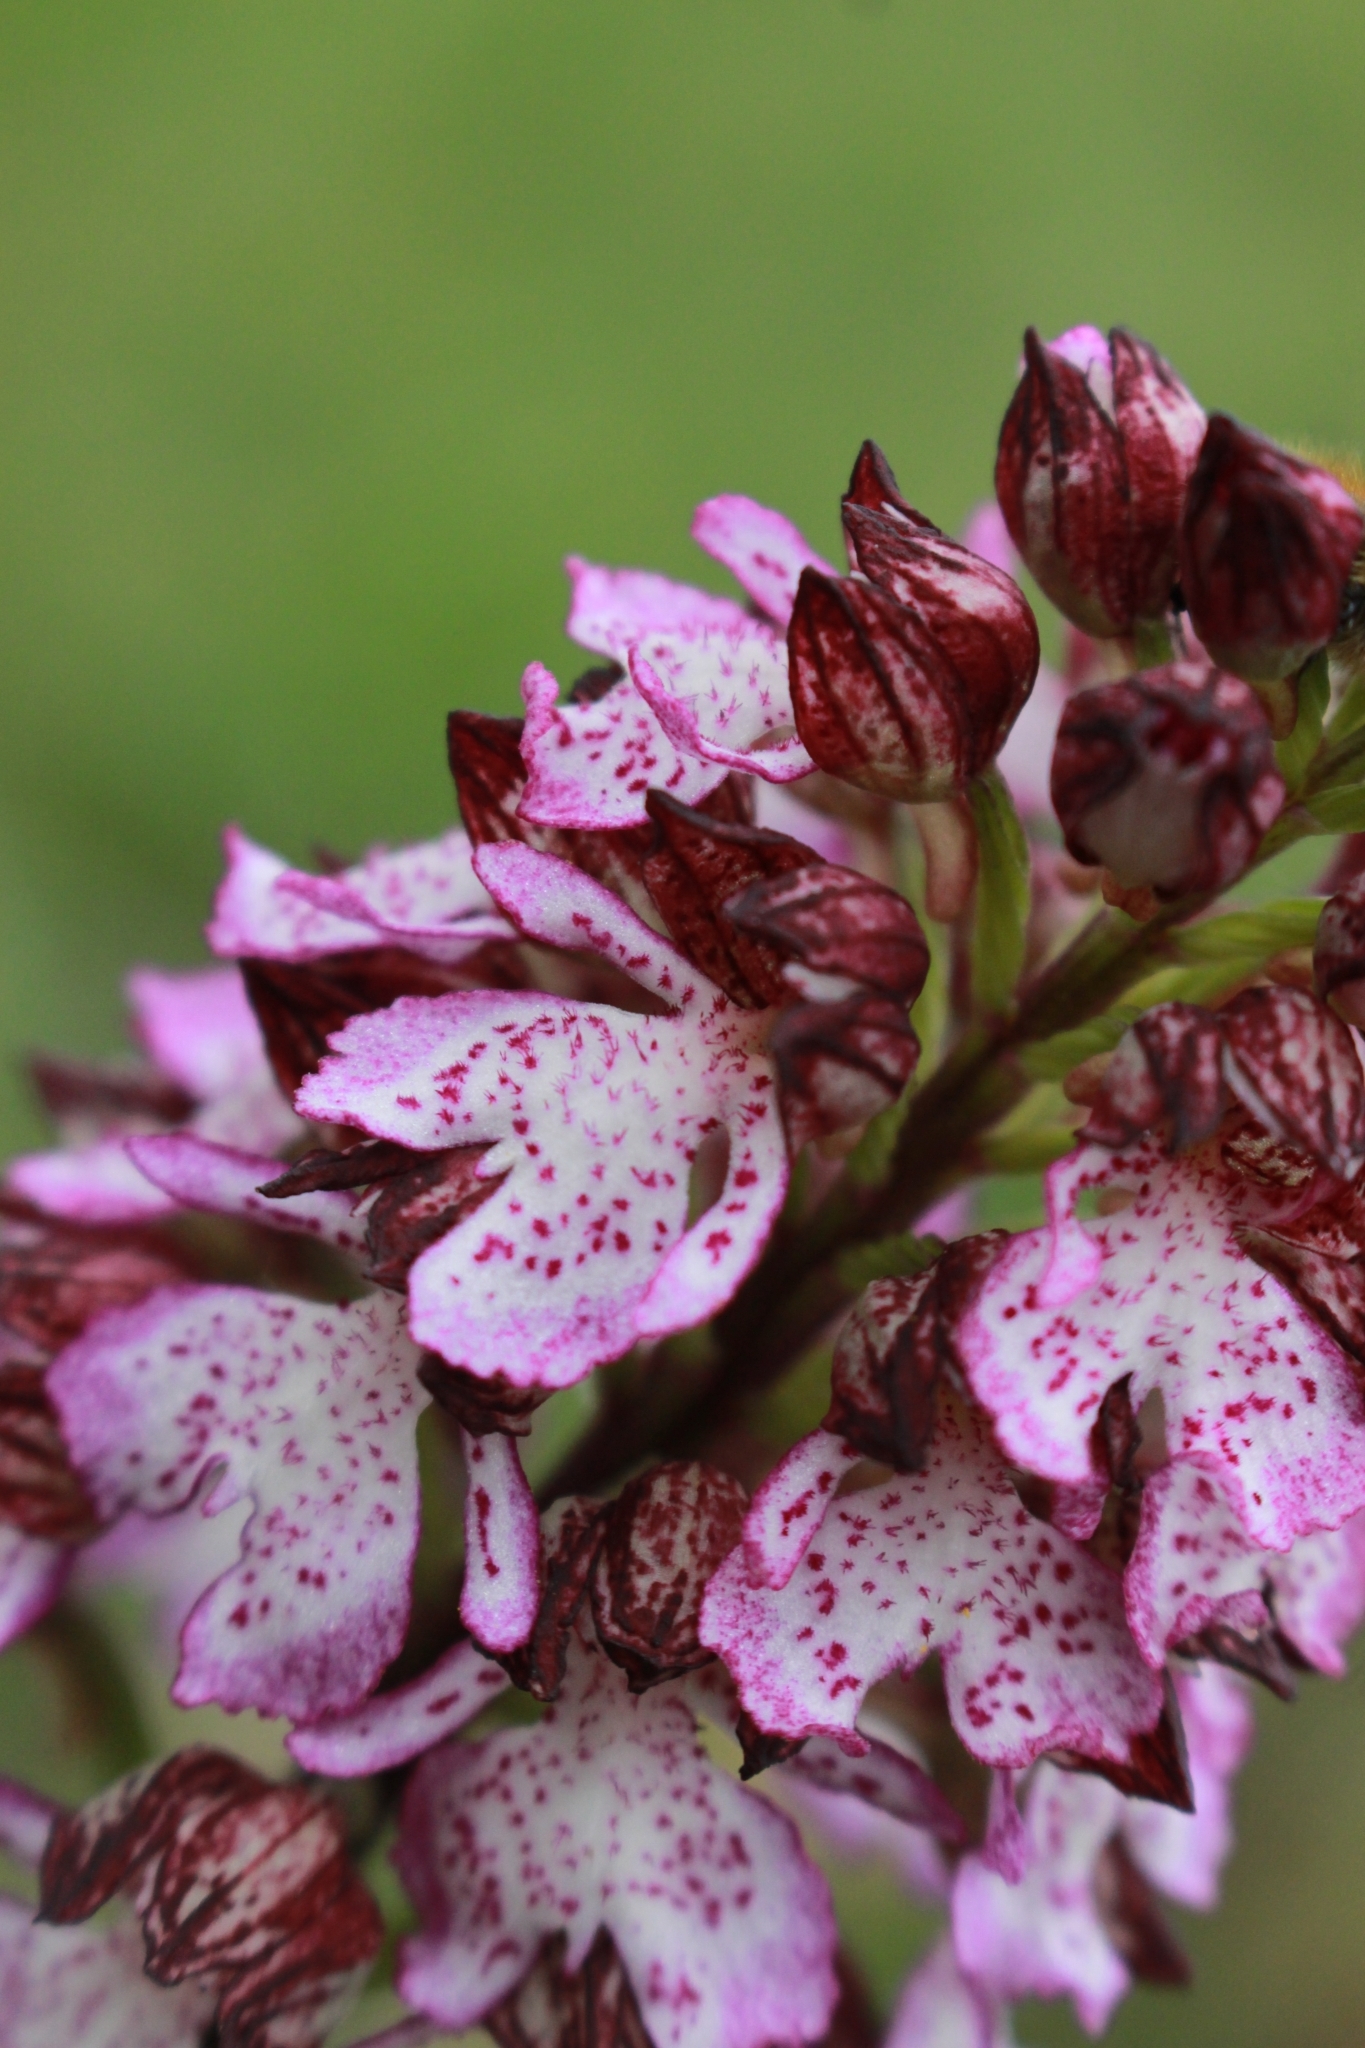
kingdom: Plantae
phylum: Tracheophyta
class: Liliopsida
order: Asparagales
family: Orchidaceae
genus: Orchis
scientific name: Orchis purpurea
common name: Lady orchid
